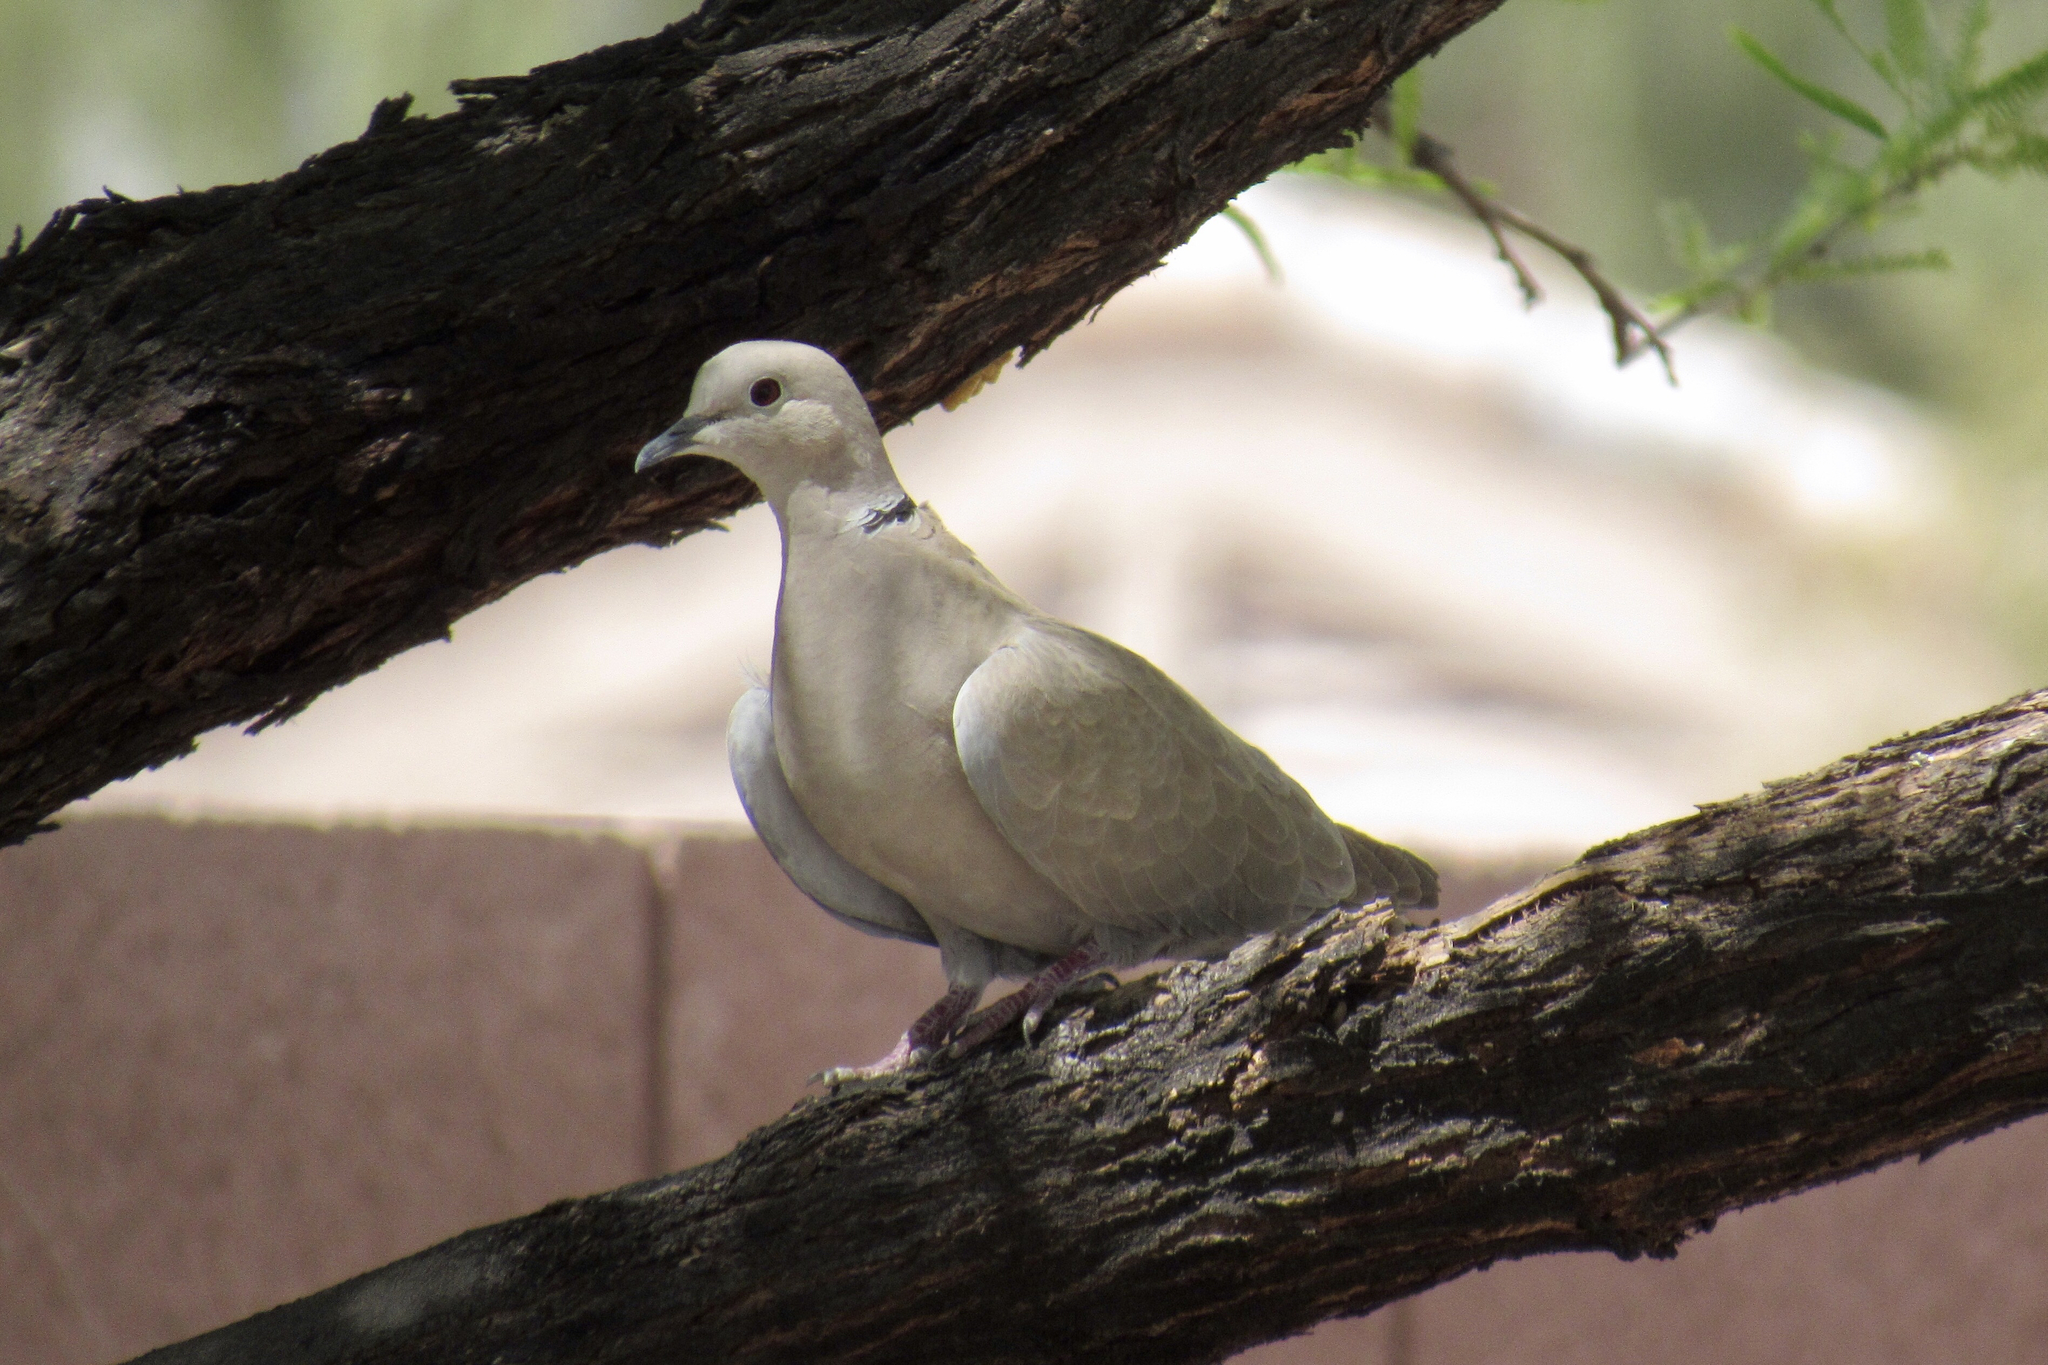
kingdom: Animalia
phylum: Chordata
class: Aves
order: Columbiformes
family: Columbidae
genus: Streptopelia
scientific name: Streptopelia decaocto
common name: Eurasian collared dove
